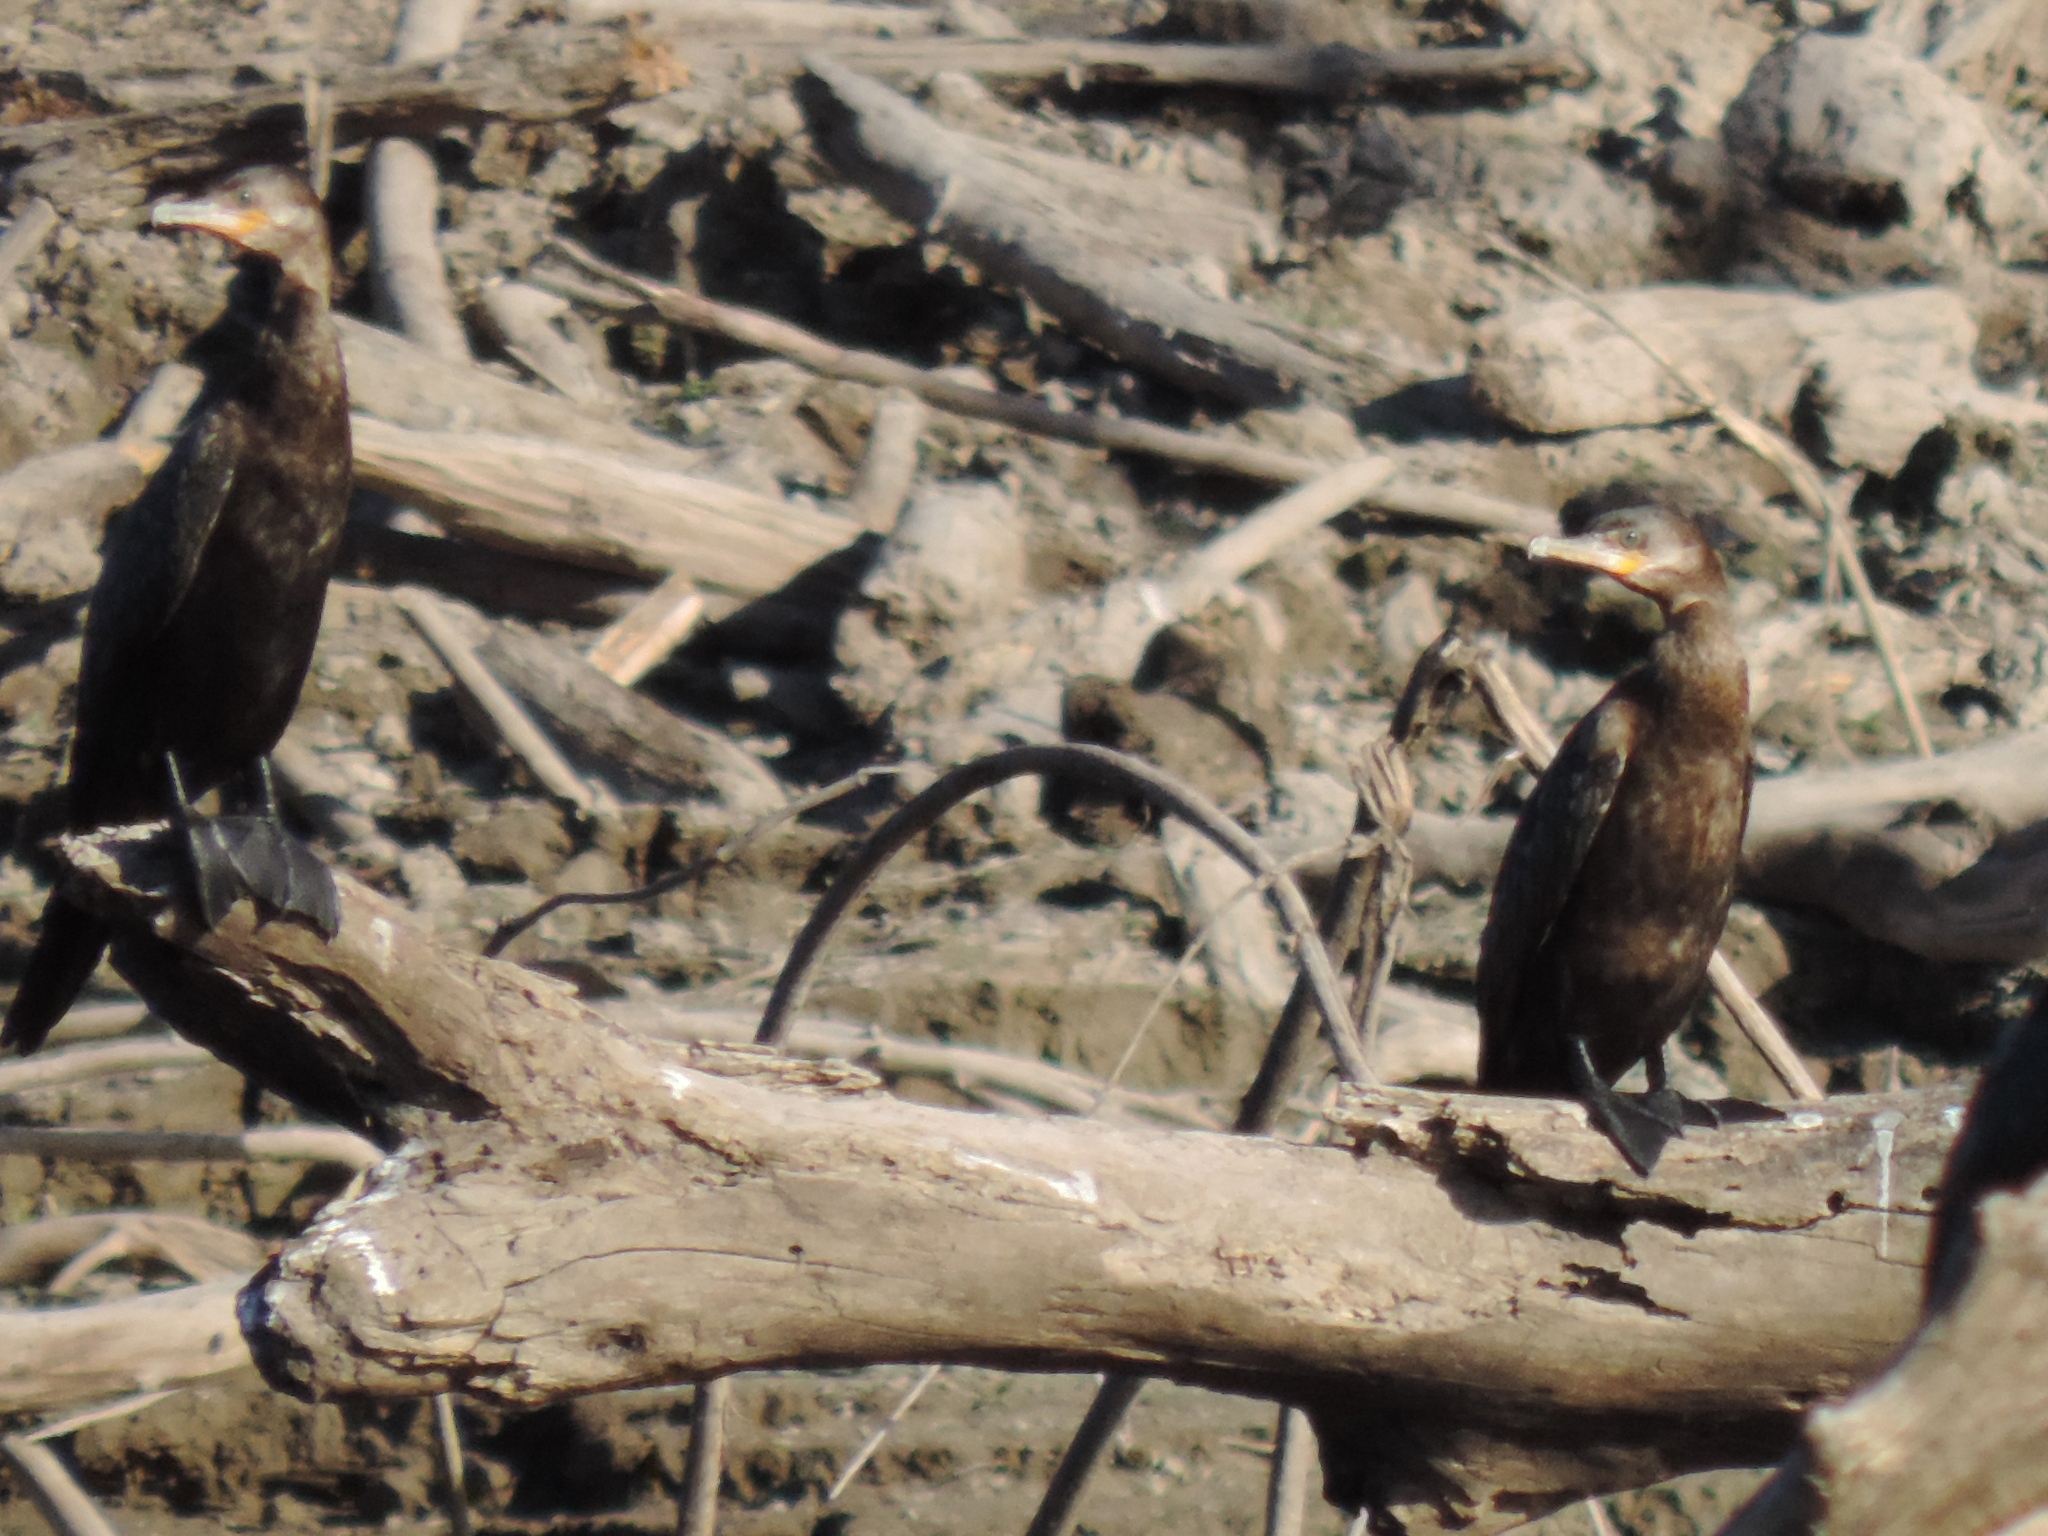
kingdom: Animalia
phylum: Chordata
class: Aves
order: Suliformes
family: Phalacrocoracidae
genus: Phalacrocorax
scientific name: Phalacrocorax brasilianus
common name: Neotropic cormorant
